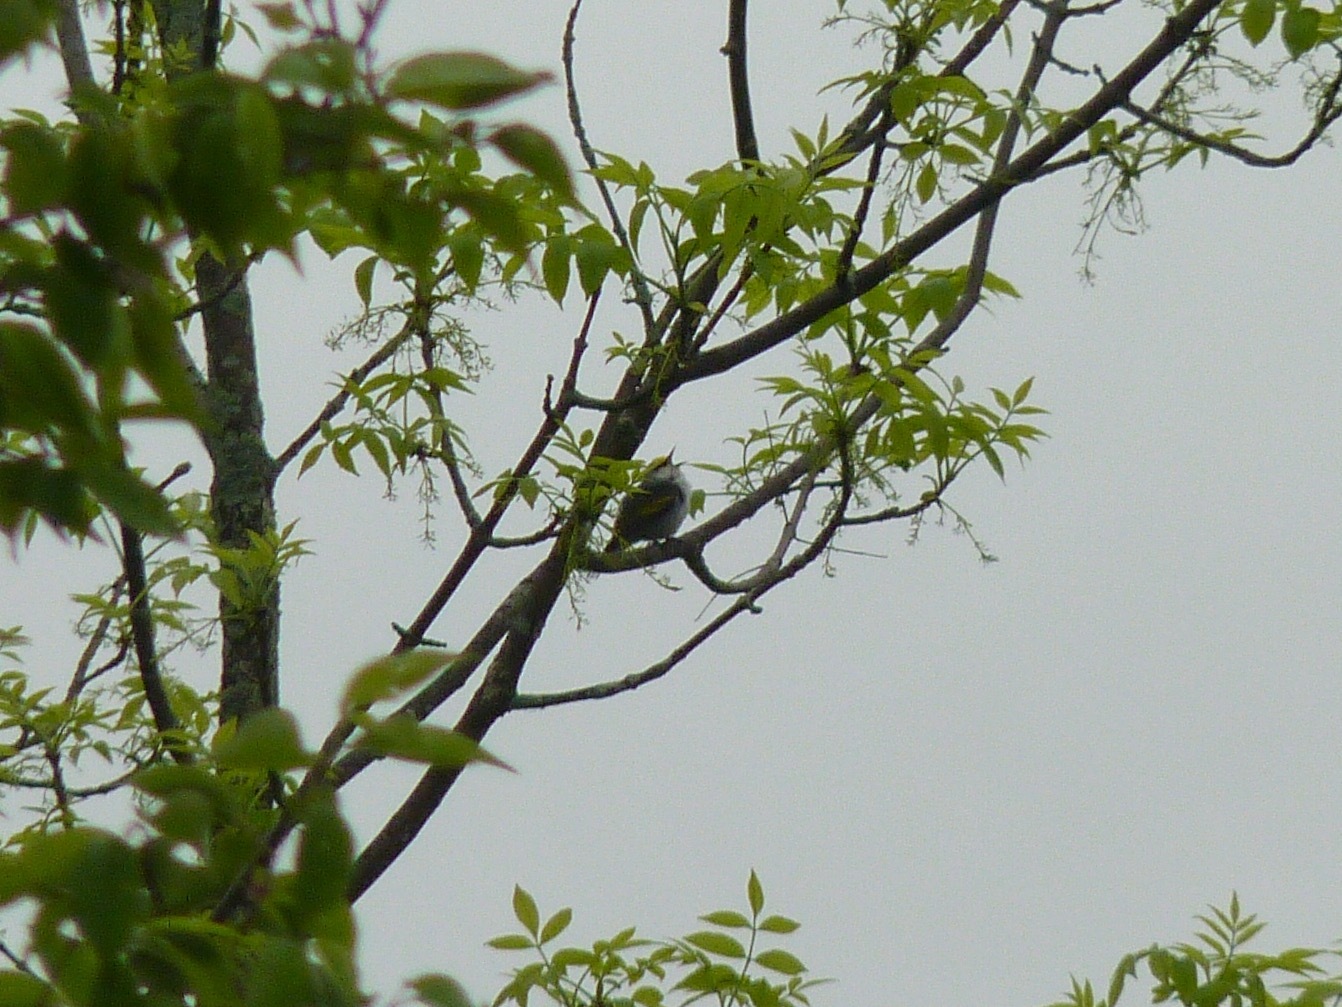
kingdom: Animalia
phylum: Chordata
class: Aves
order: Passeriformes
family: Parulidae
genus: Vermivora
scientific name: Vermivora
